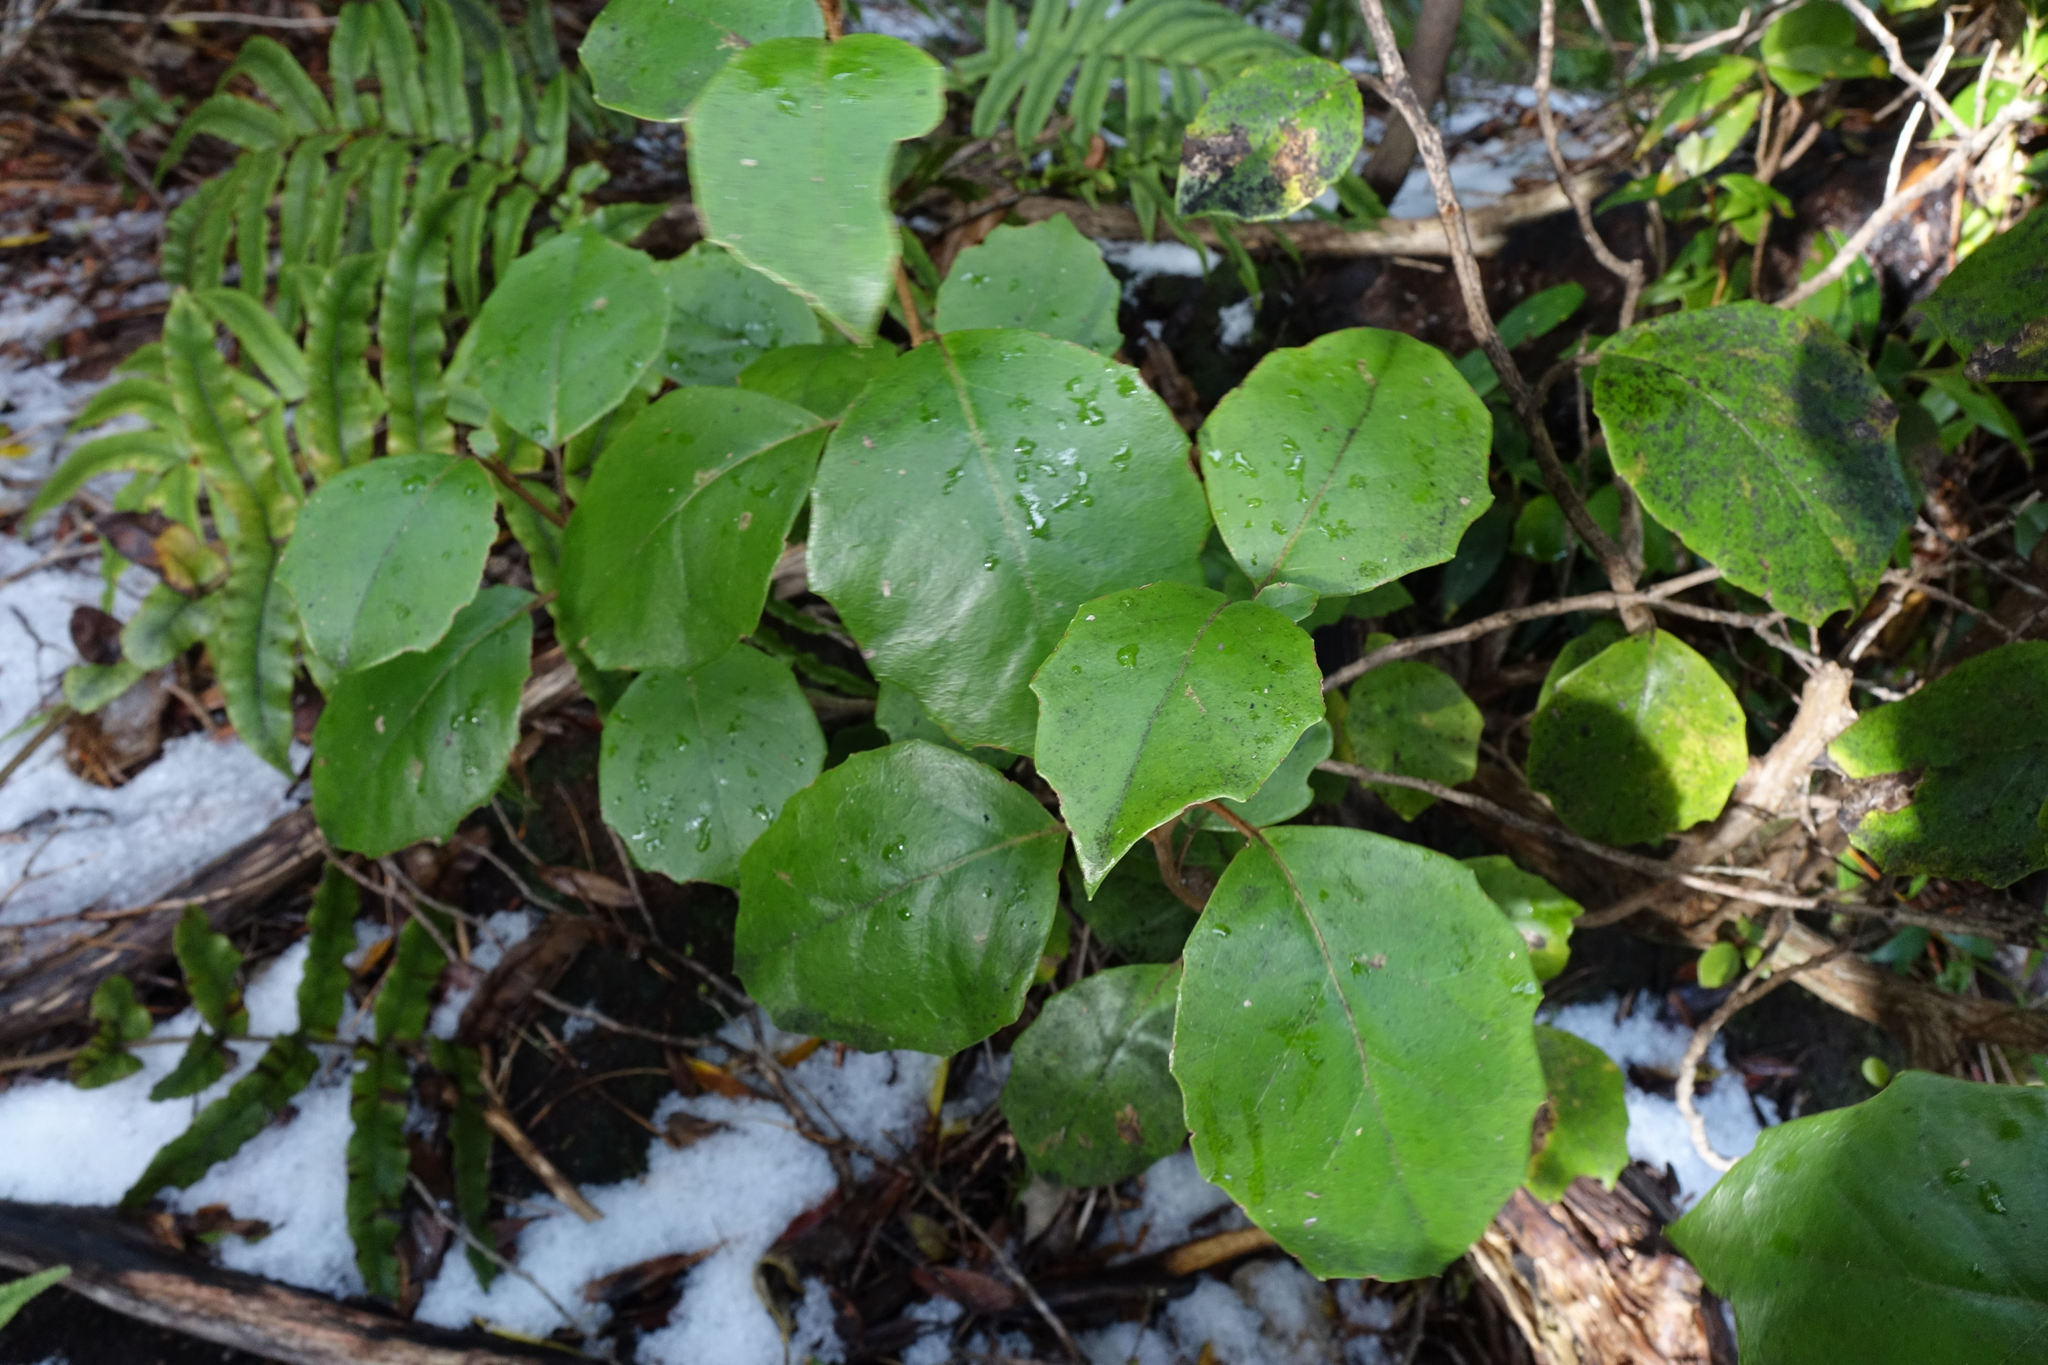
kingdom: Plantae
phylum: Tracheophyta
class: Magnoliopsida
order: Asterales
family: Asteraceae
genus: Olearia
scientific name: Olearia arborescens
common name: Glossy tree daisy
